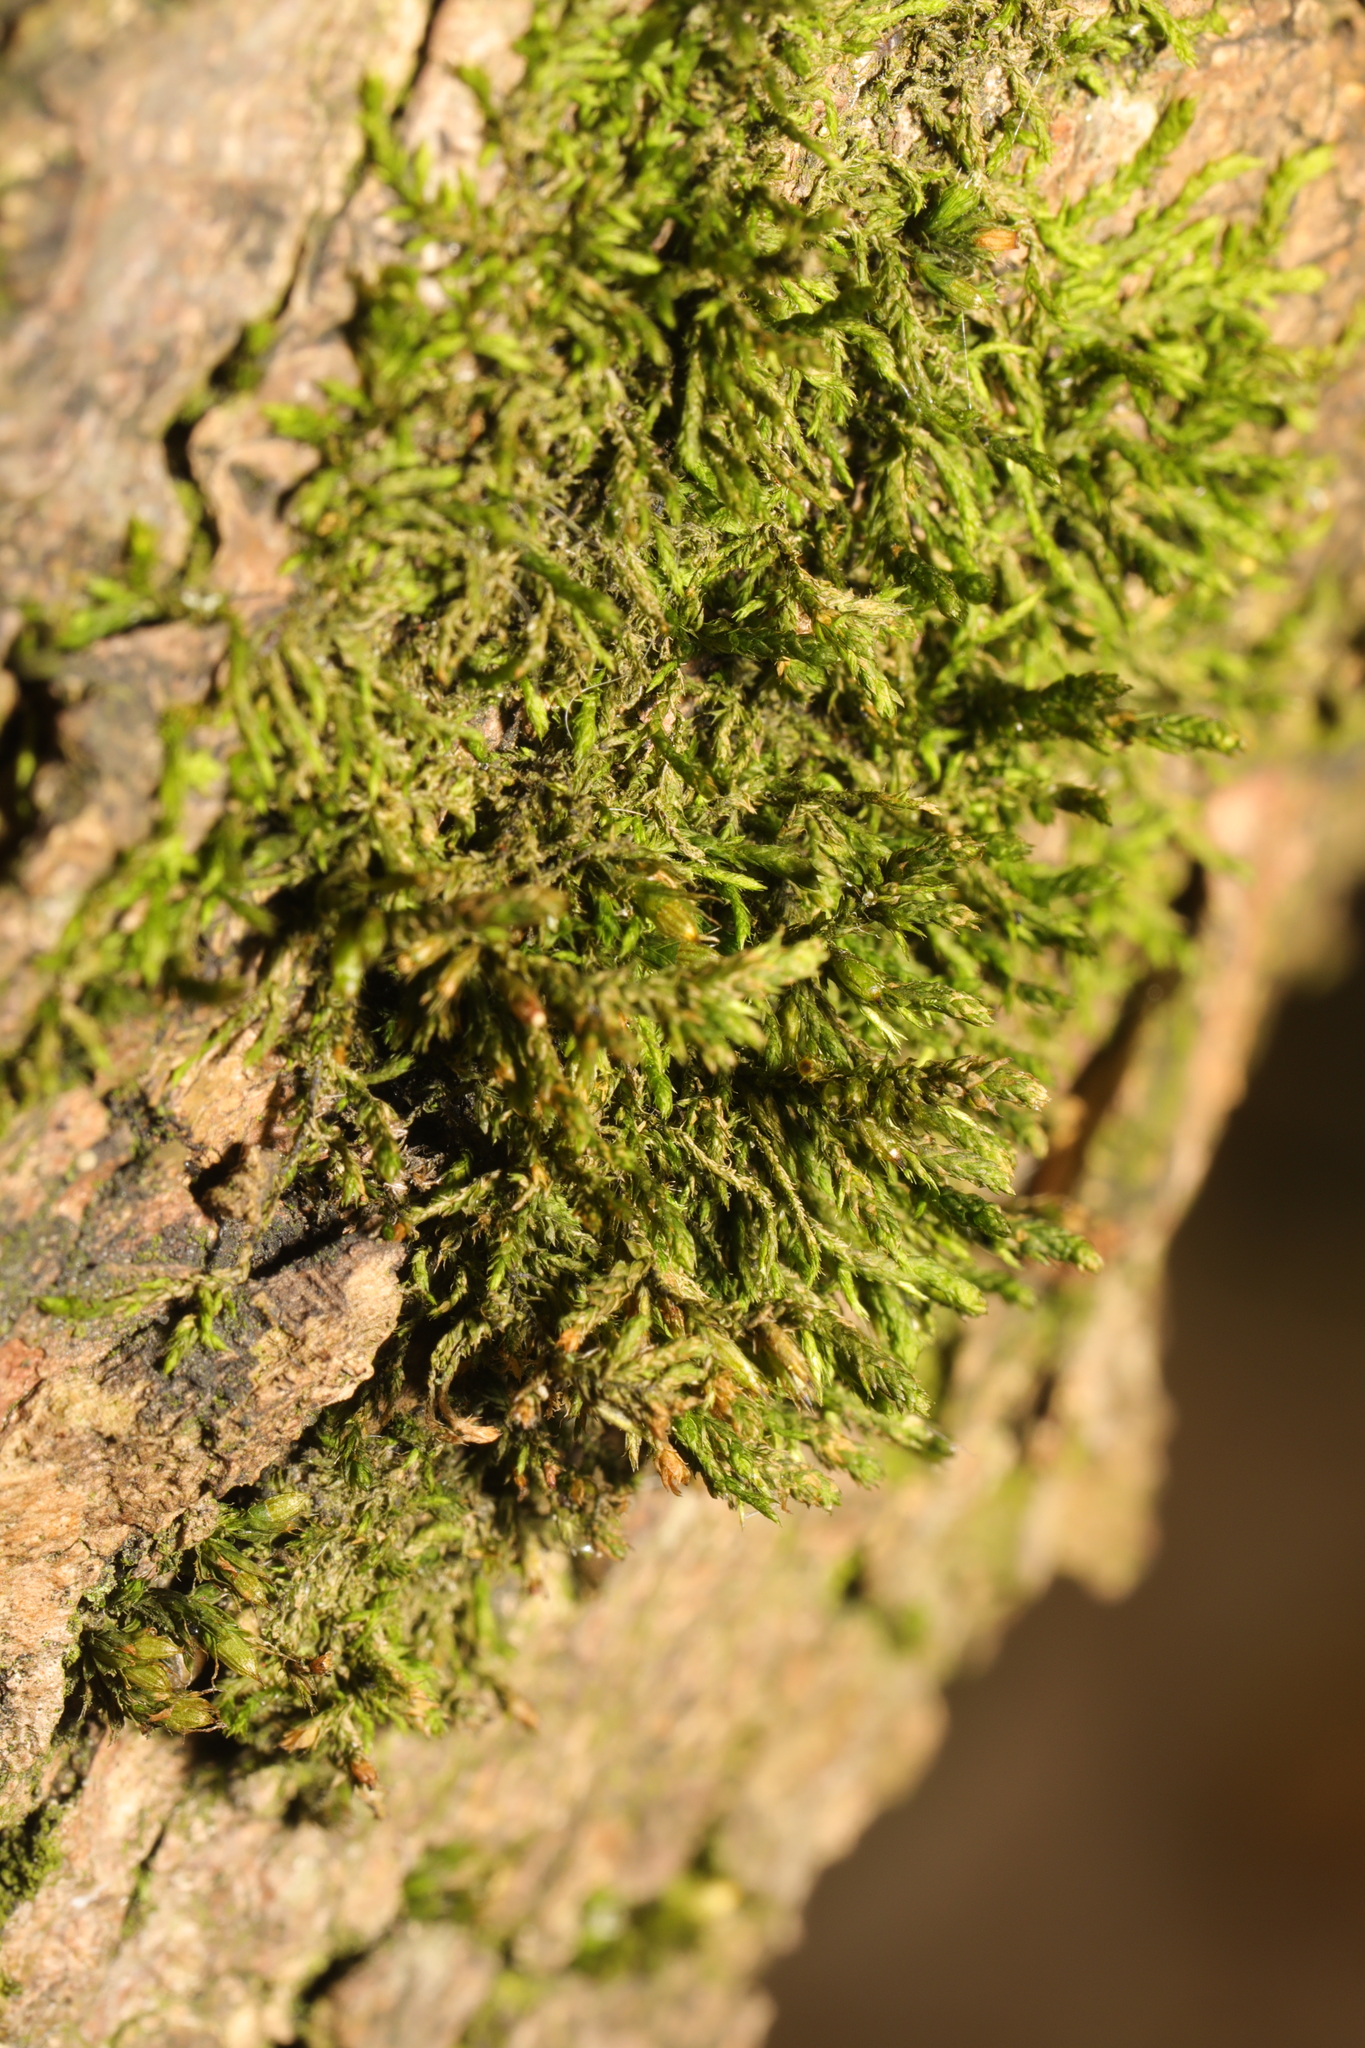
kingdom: Plantae
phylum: Bryophyta
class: Bryopsida
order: Hypnales
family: Cryphaeaceae
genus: Cryphaea
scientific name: Cryphaea heteromalla
